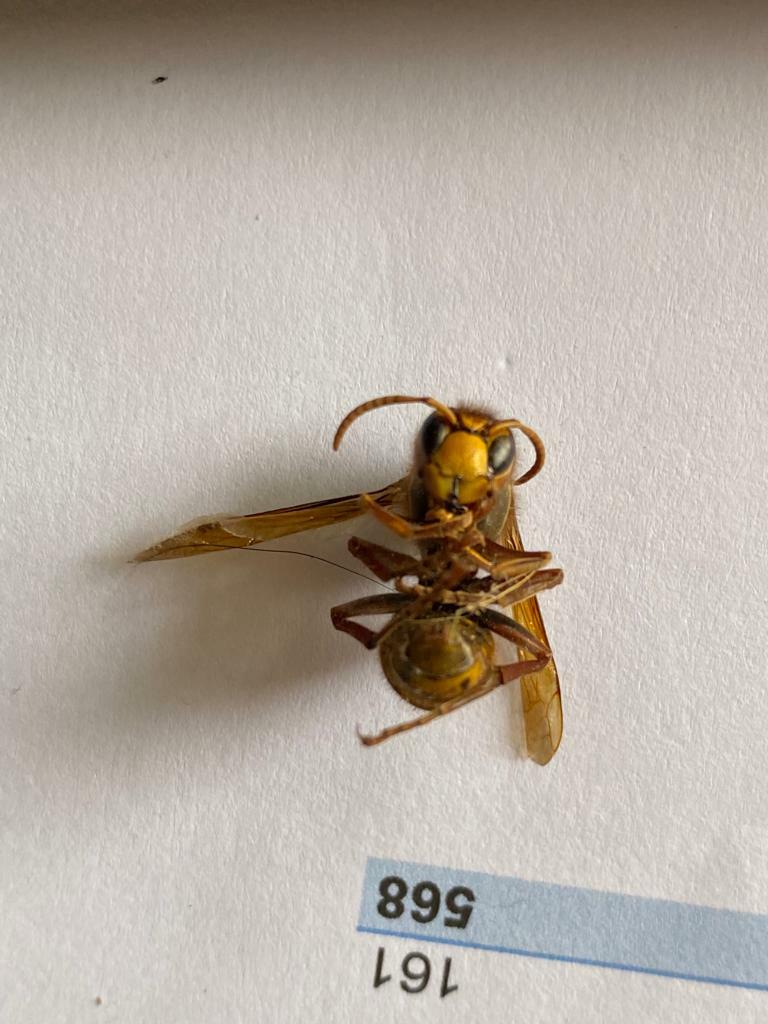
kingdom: Animalia
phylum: Arthropoda
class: Insecta
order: Hymenoptera
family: Vespidae
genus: Vespa
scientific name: Vespa crabro
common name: Hornet
